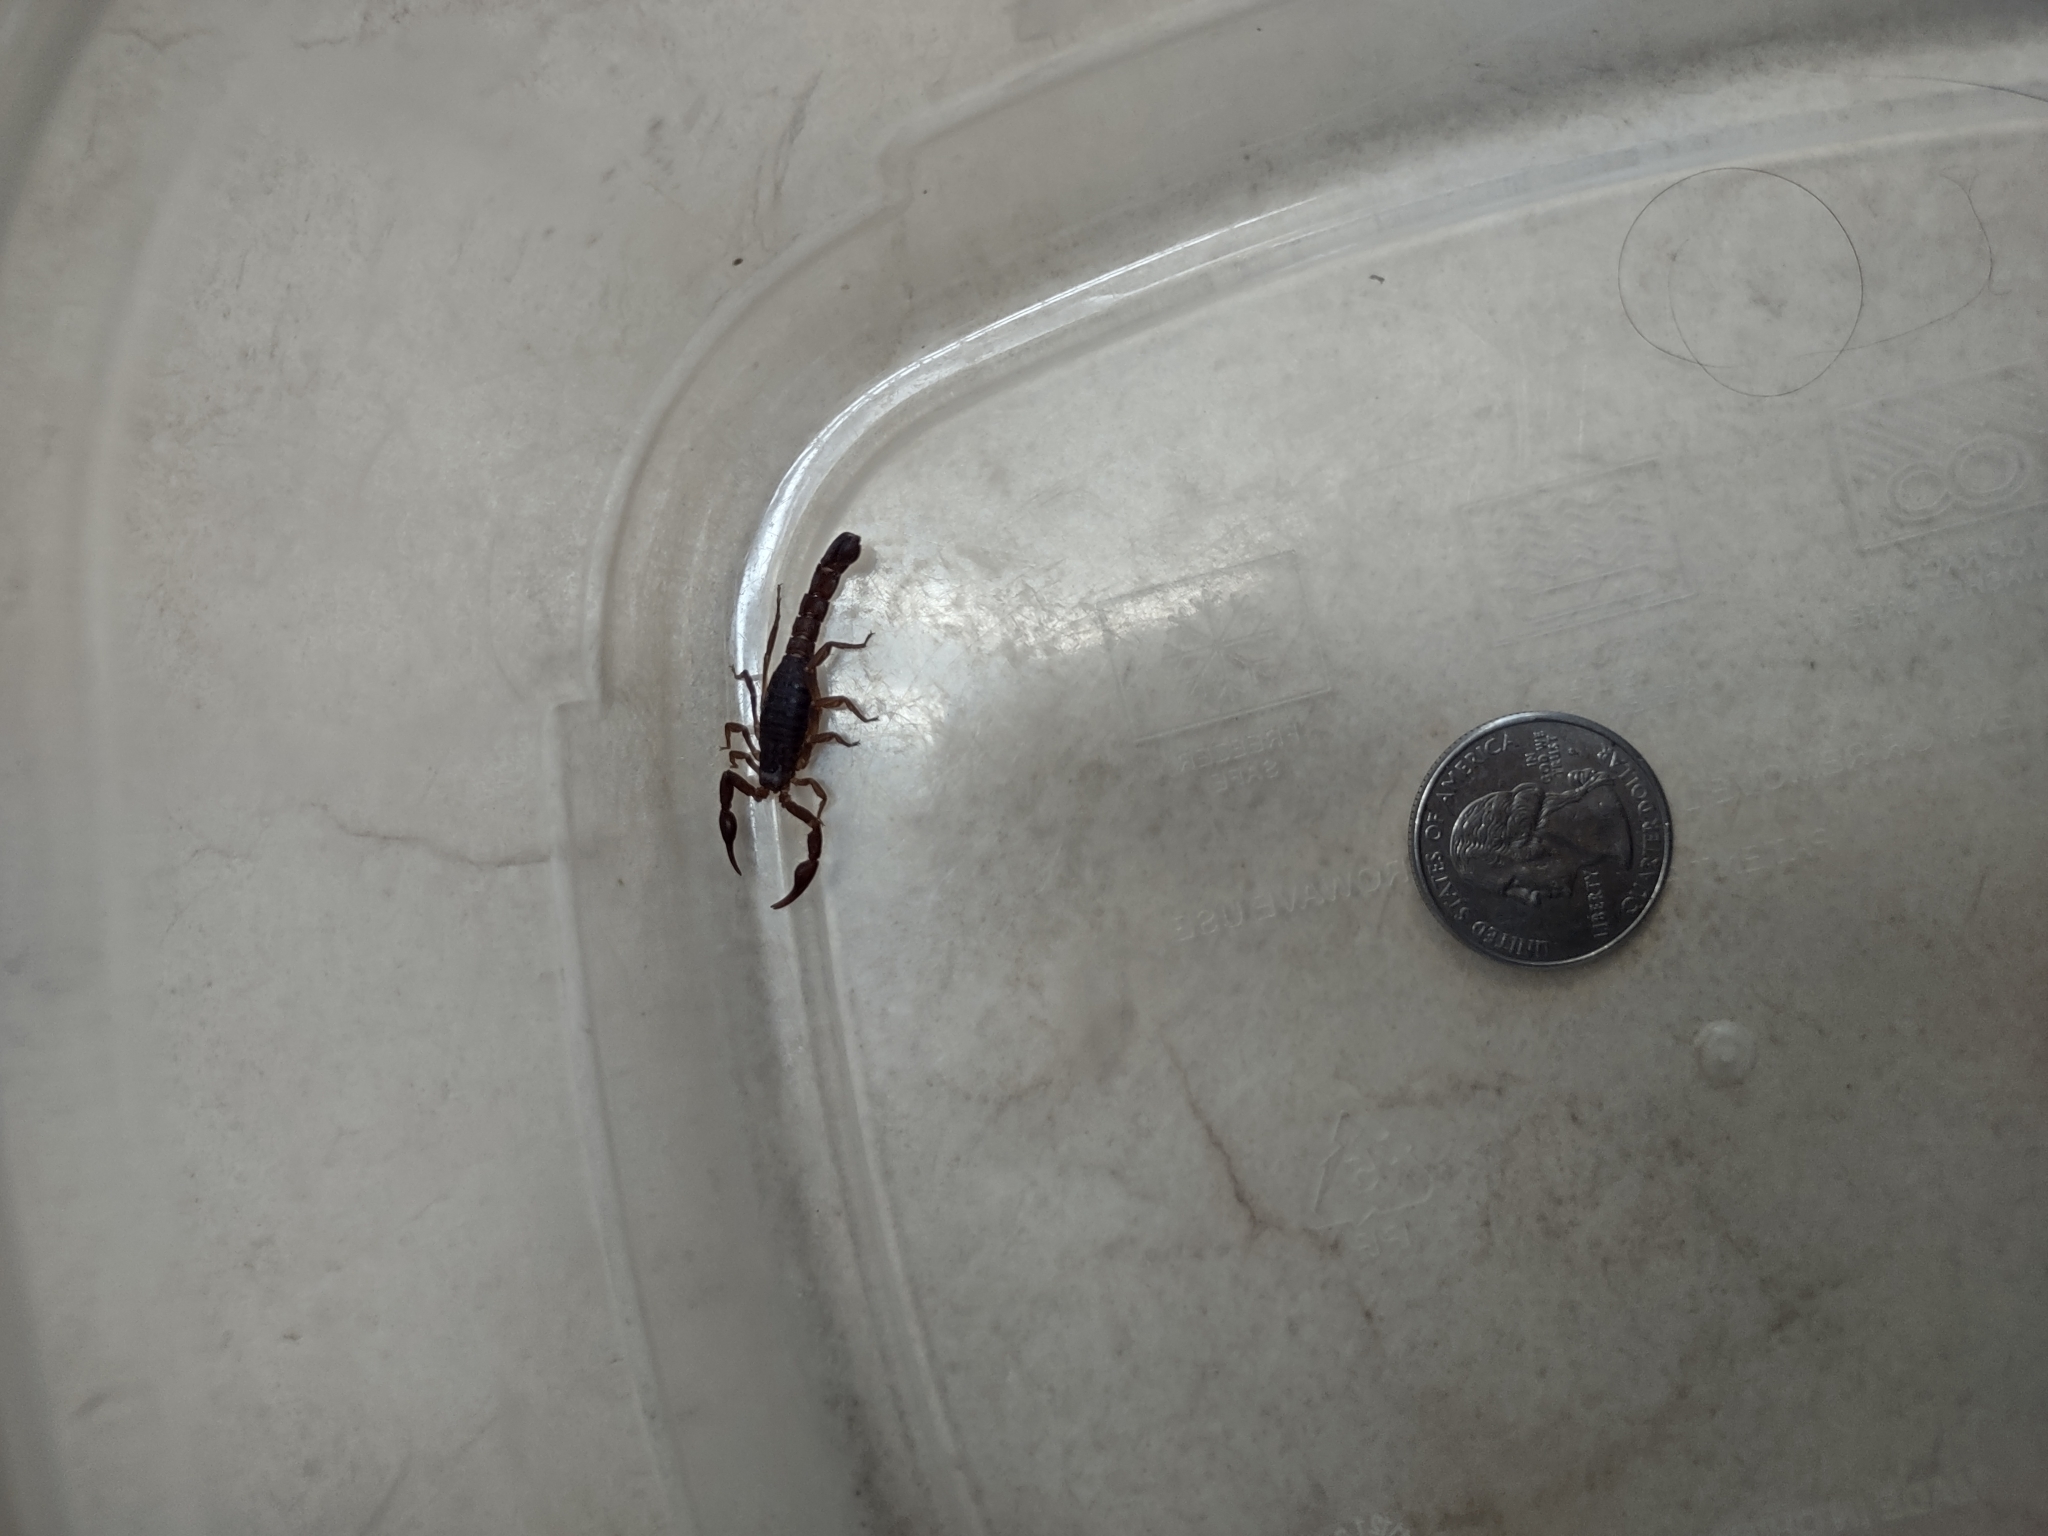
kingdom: Animalia
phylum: Arthropoda
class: Arachnida
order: Scorpiones
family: Vaejovidae
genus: Vaejovis
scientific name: Vaejovis carolinianus
